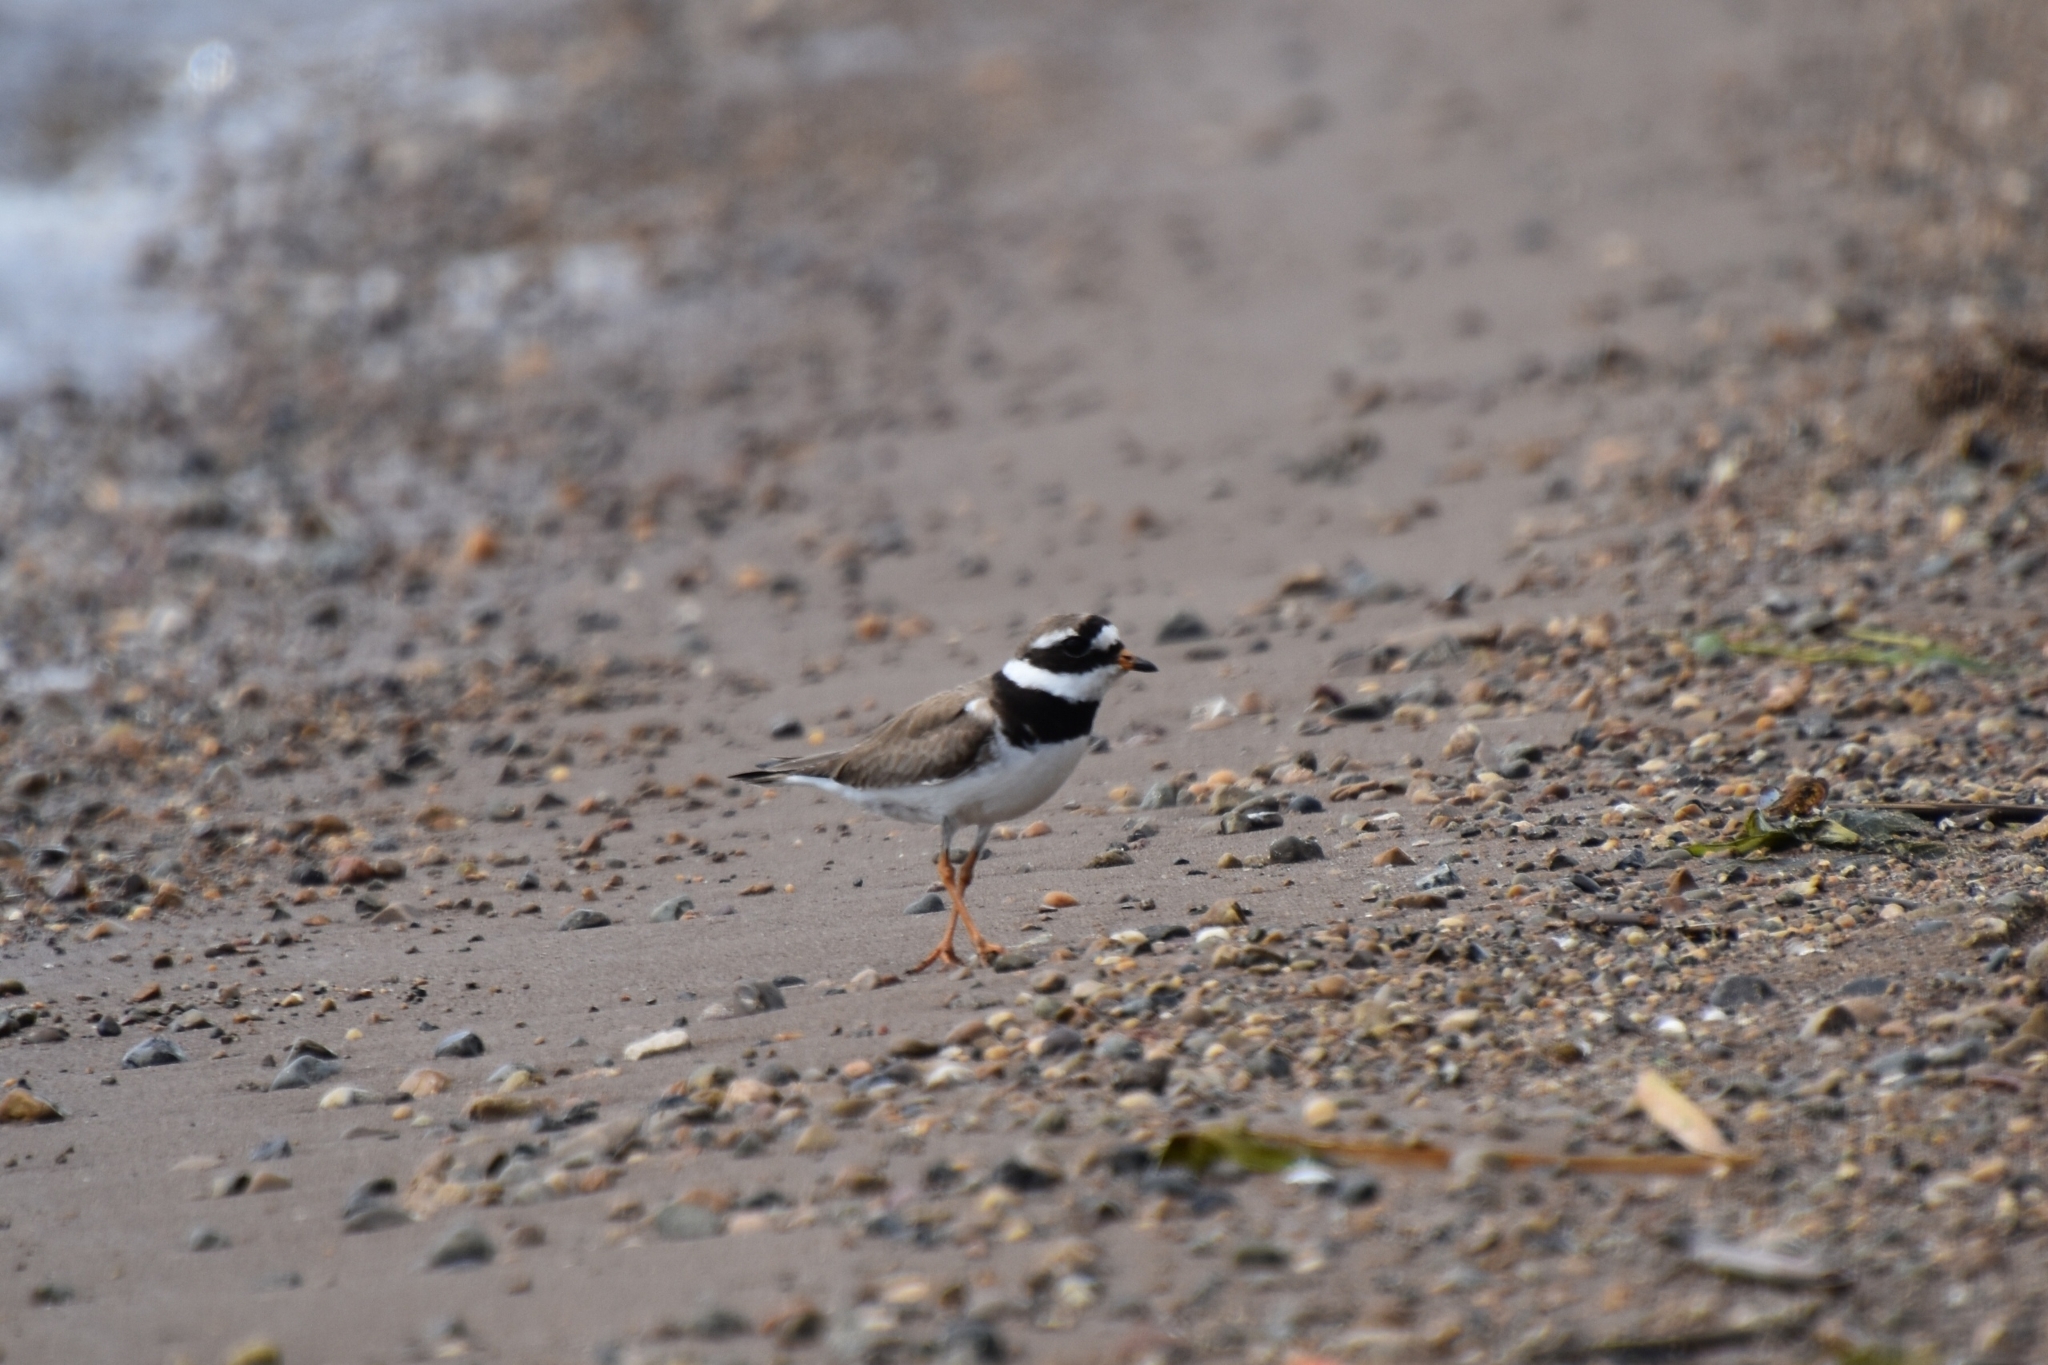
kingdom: Animalia
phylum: Chordata
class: Aves
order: Charadriiformes
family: Charadriidae
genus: Charadrius
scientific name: Charadrius hiaticula
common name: Common ringed plover
